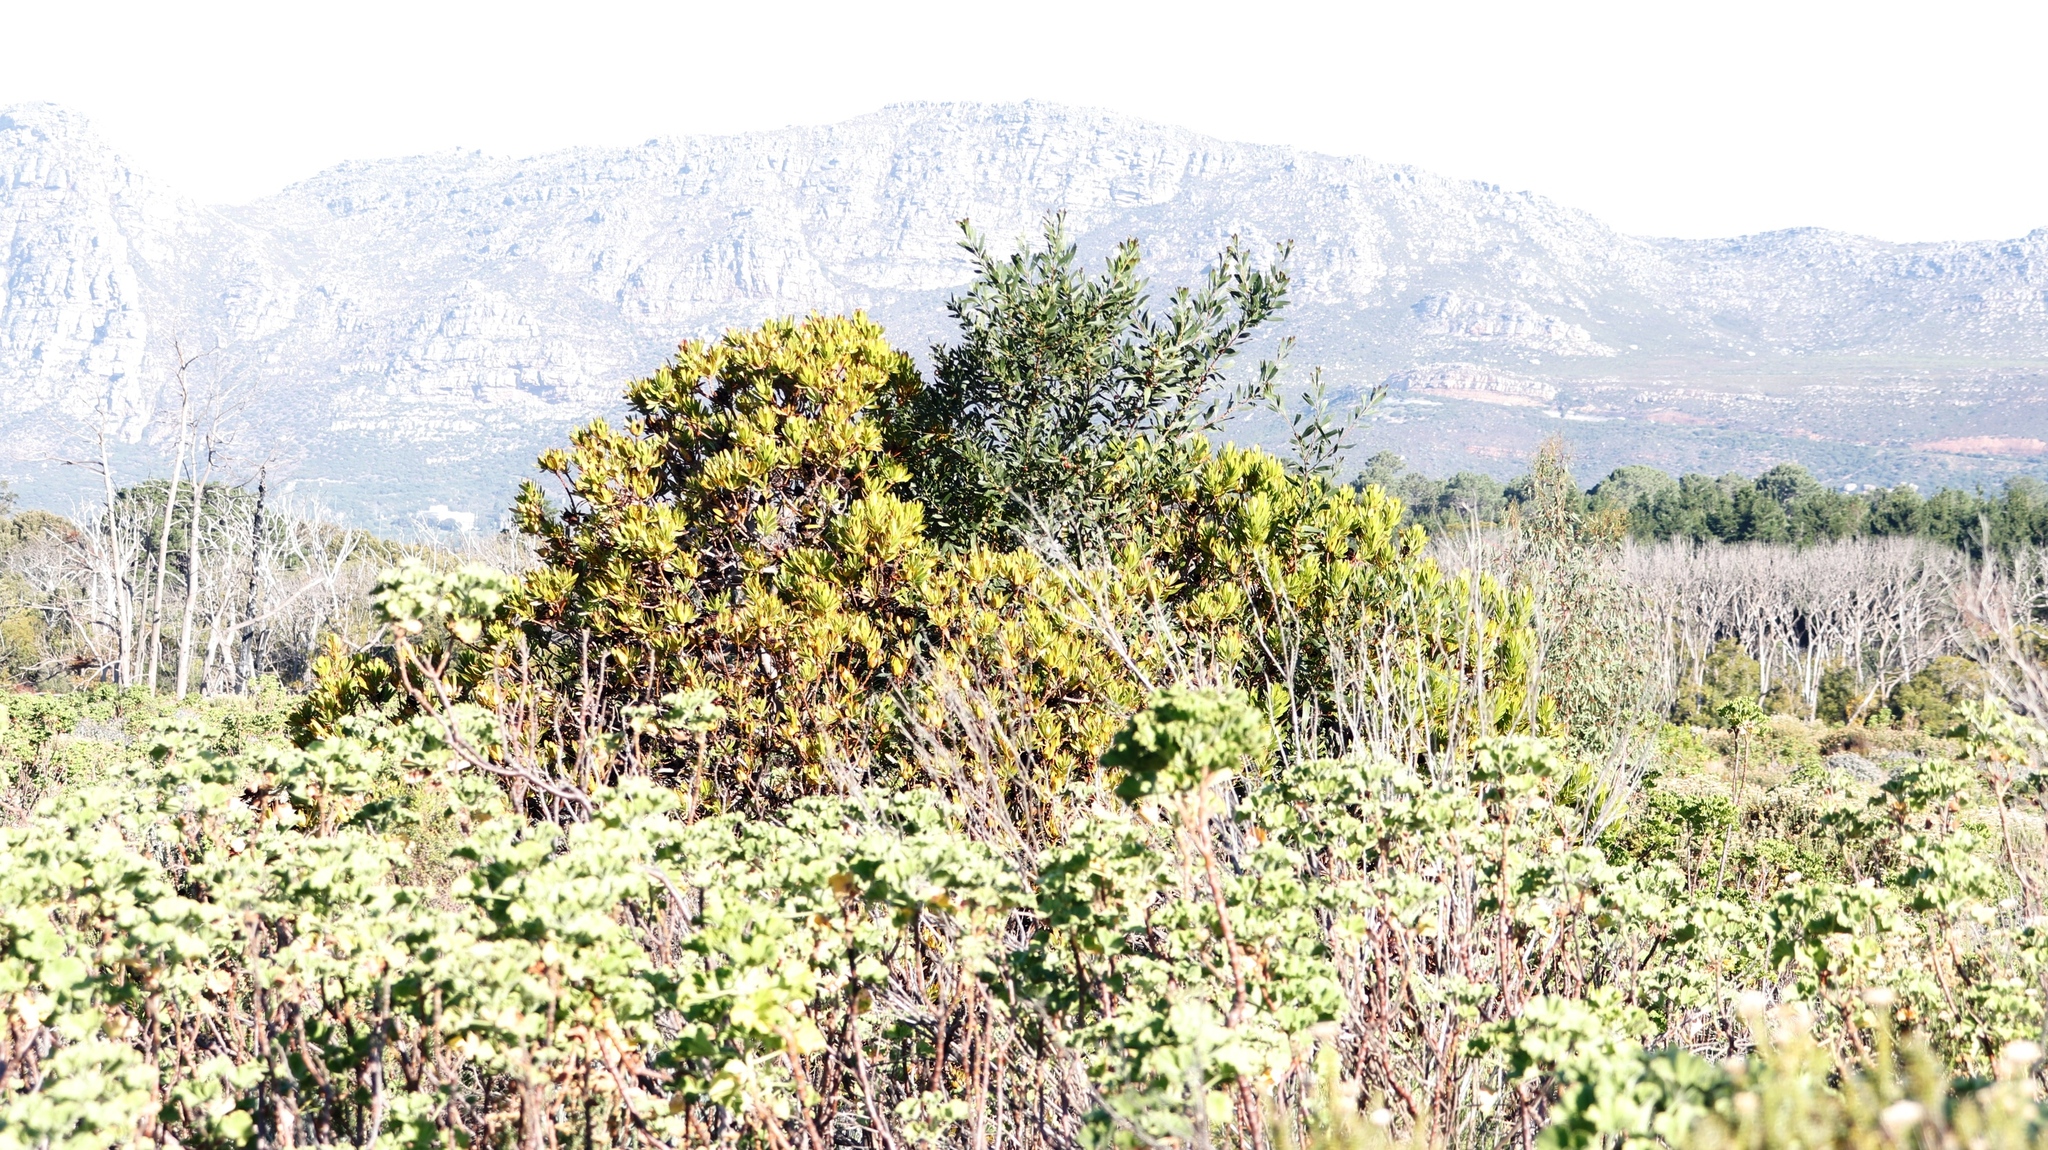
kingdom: Plantae
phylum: Tracheophyta
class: Magnoliopsida
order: Proteales
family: Proteaceae
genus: Leucadendron
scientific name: Leucadendron laureolum
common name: Golden sunshinebush
